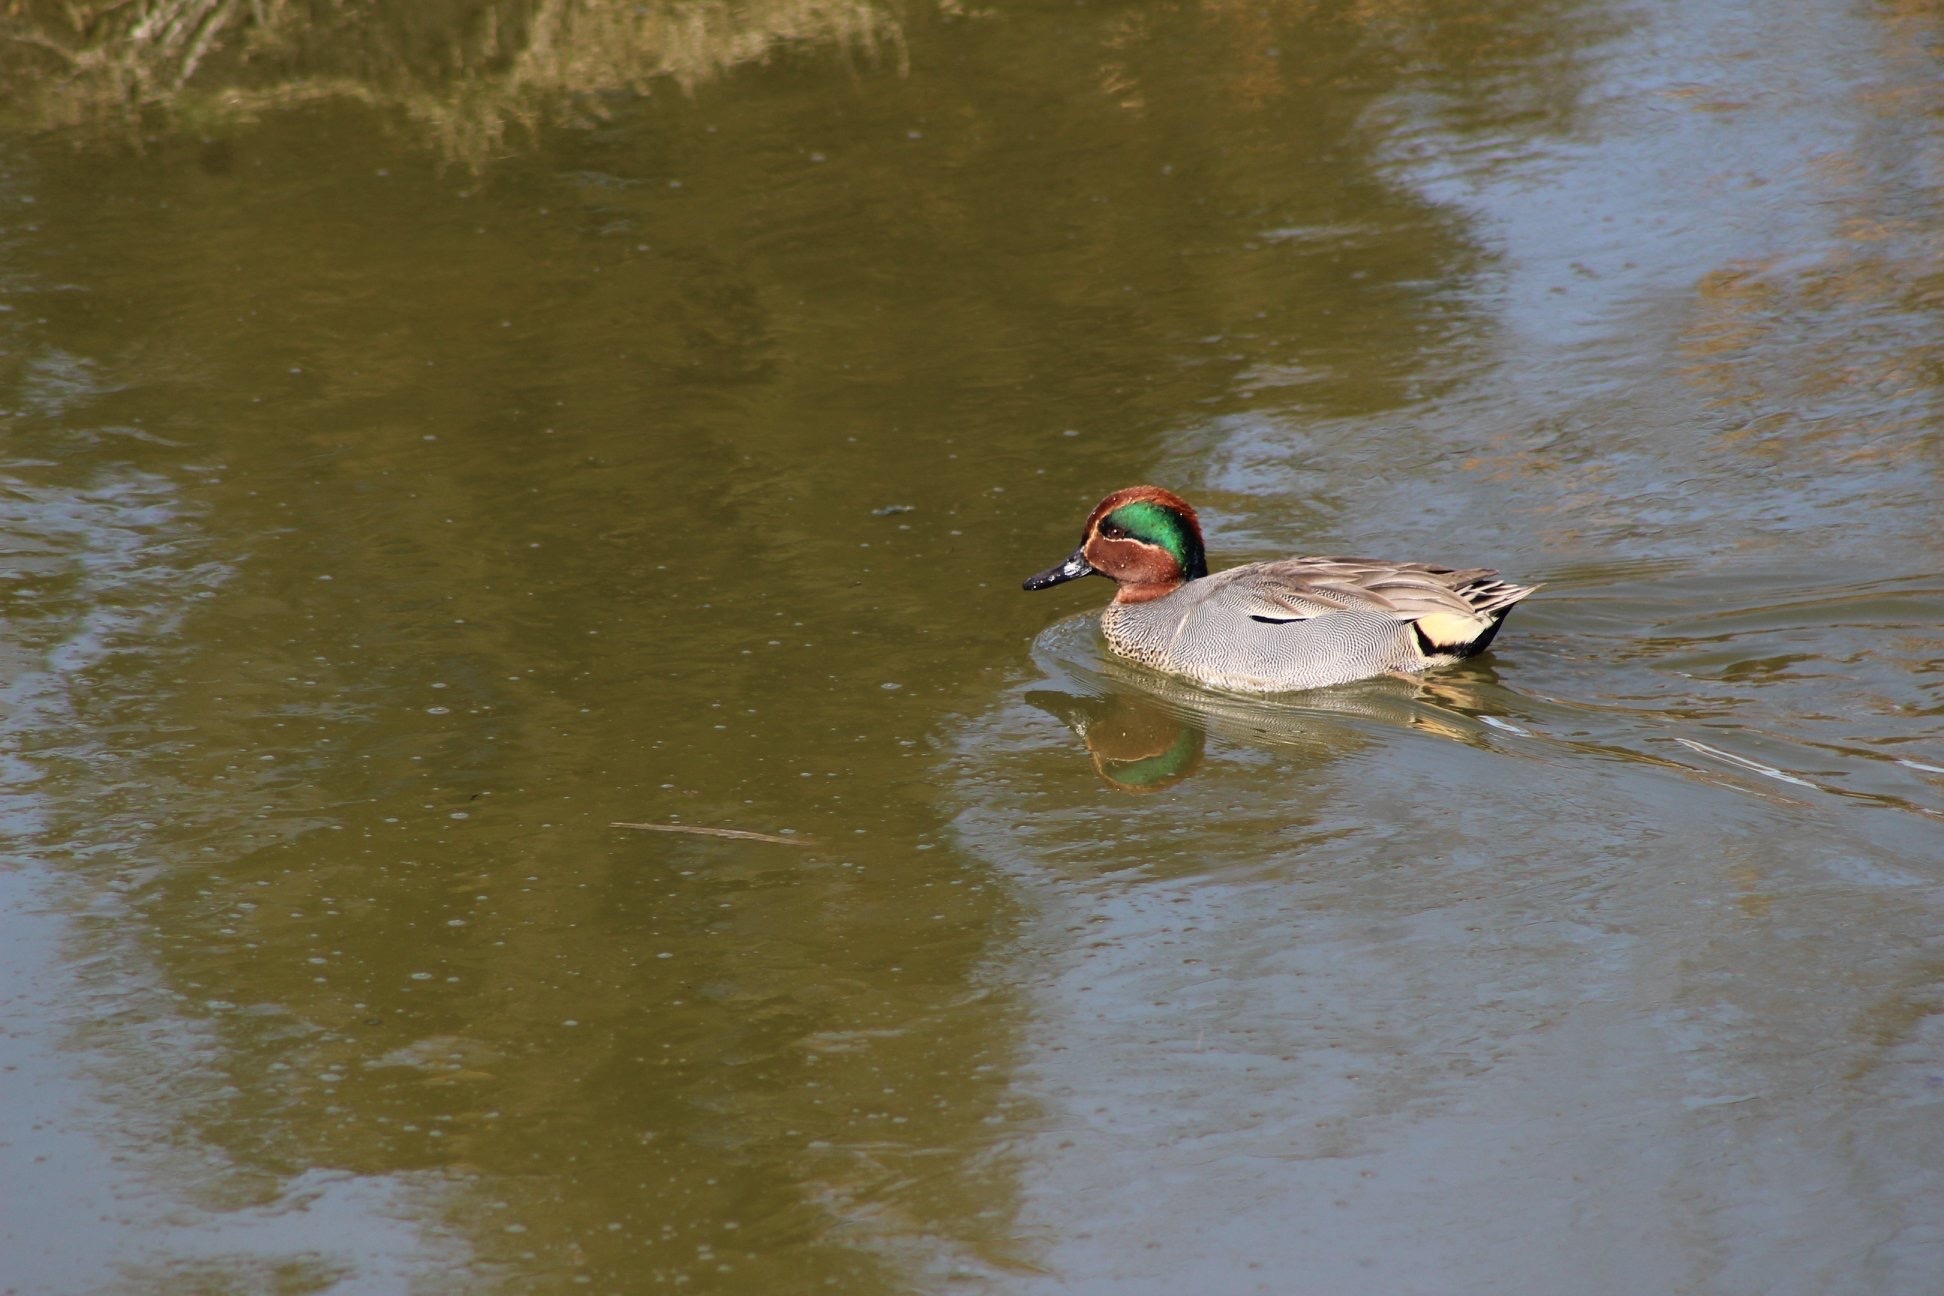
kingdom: Animalia
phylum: Chordata
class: Aves
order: Anseriformes
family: Anatidae
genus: Anas
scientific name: Anas carolinensis
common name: Green-winged teal
